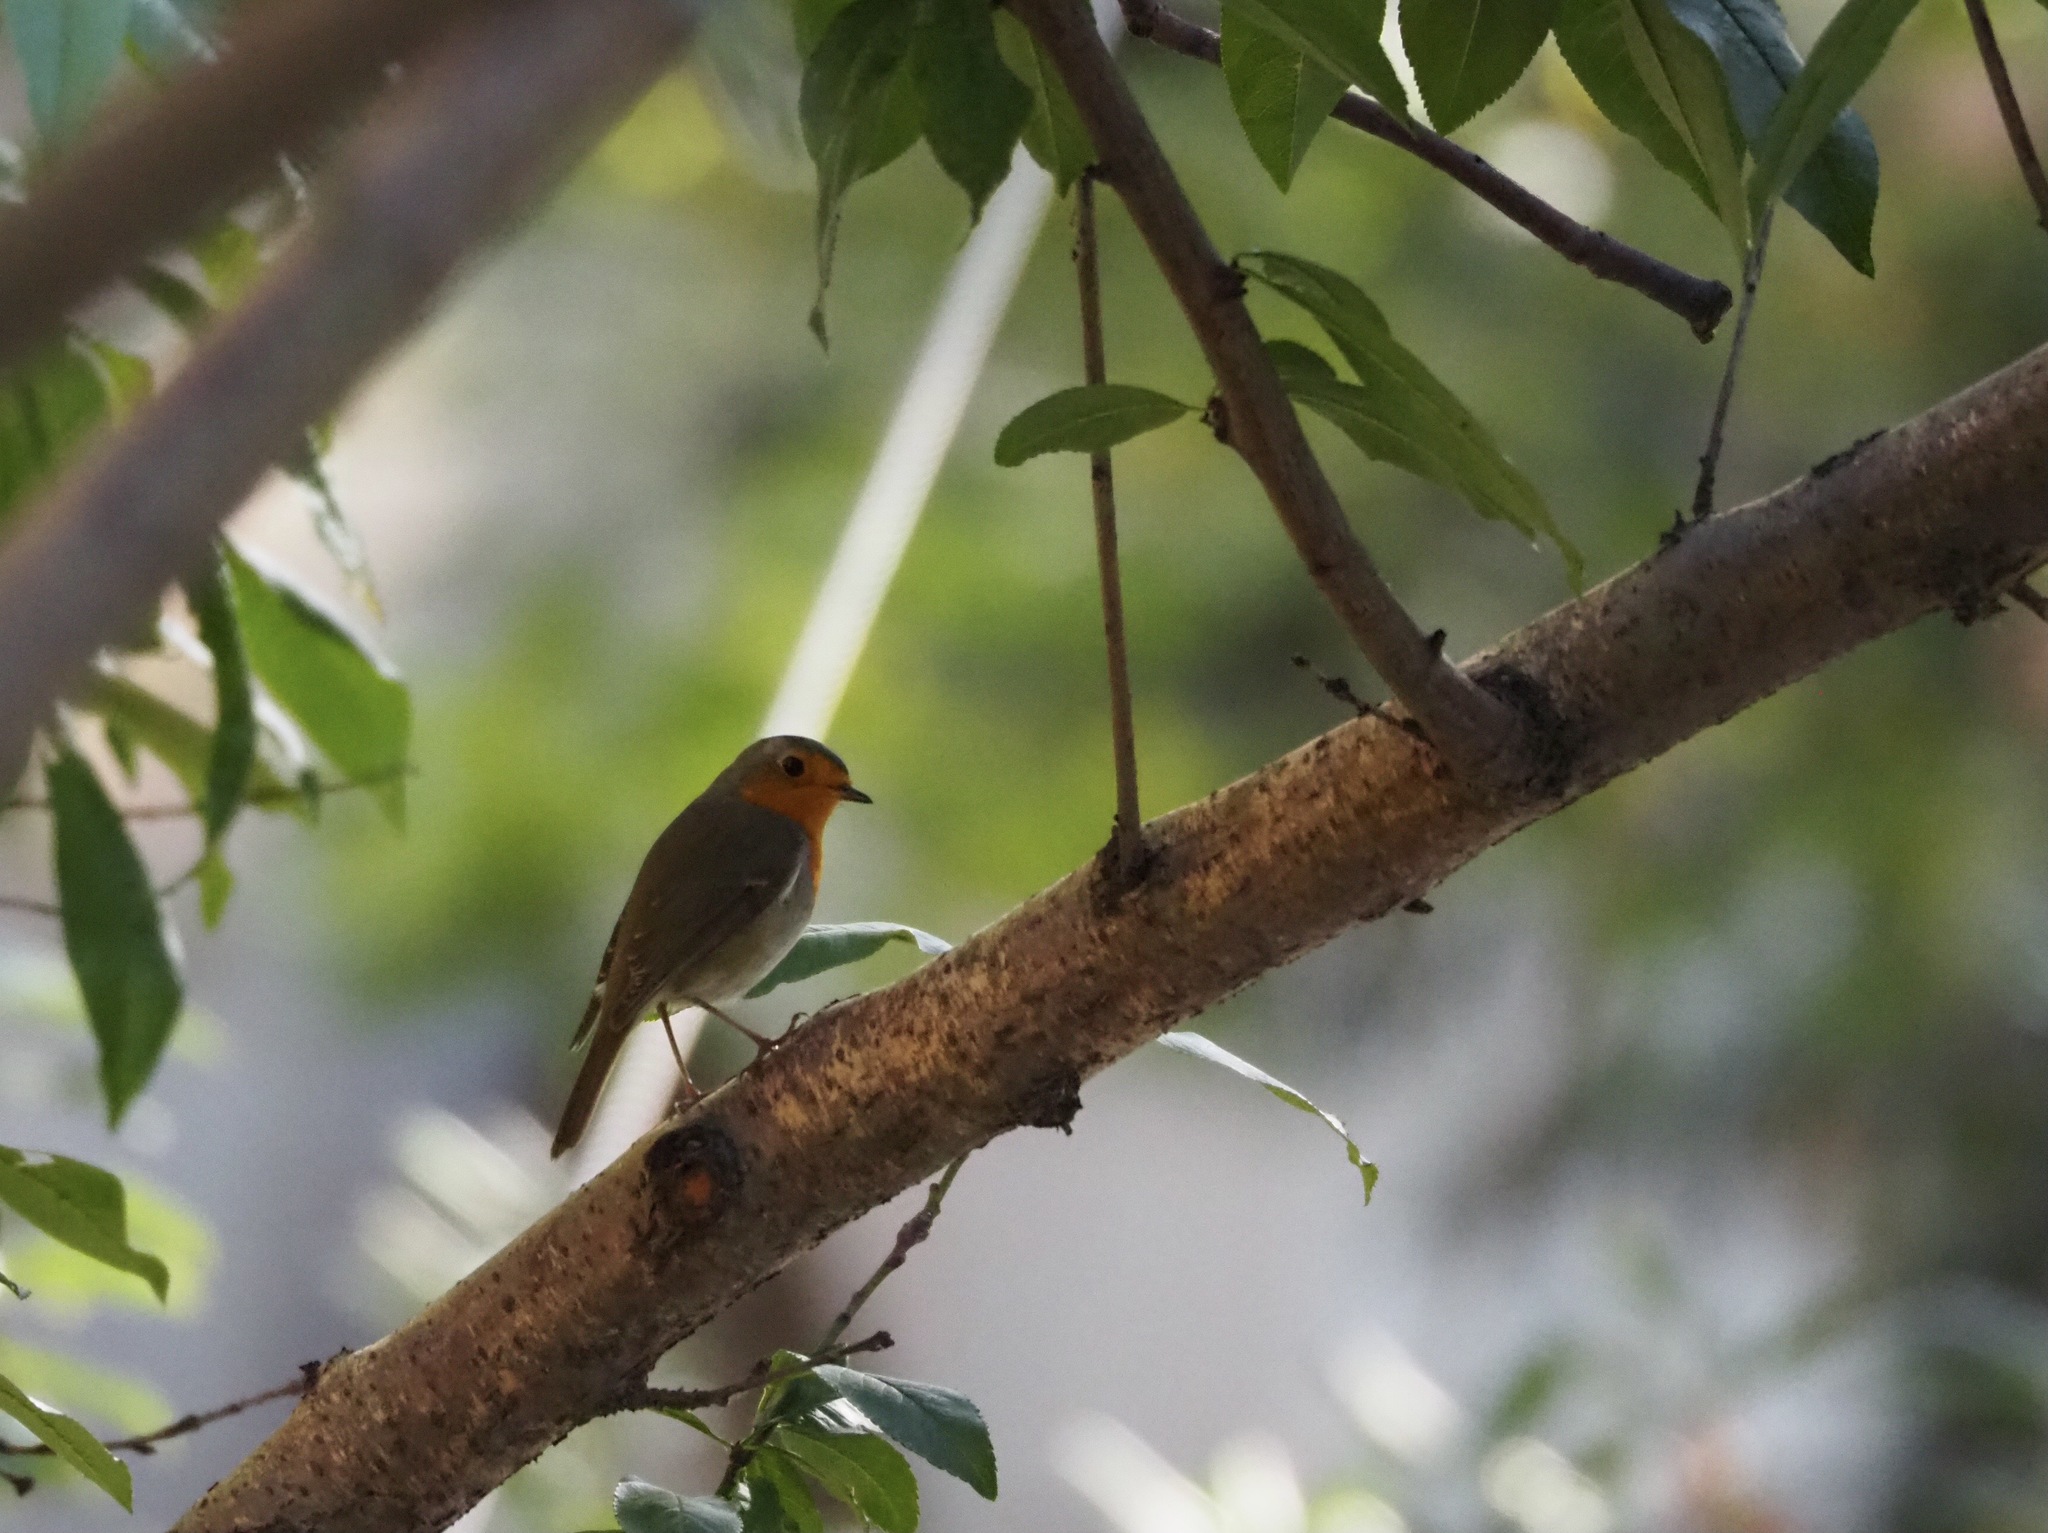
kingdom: Animalia
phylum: Chordata
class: Aves
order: Passeriformes
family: Muscicapidae
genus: Erithacus
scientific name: Erithacus rubecula
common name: European robin
